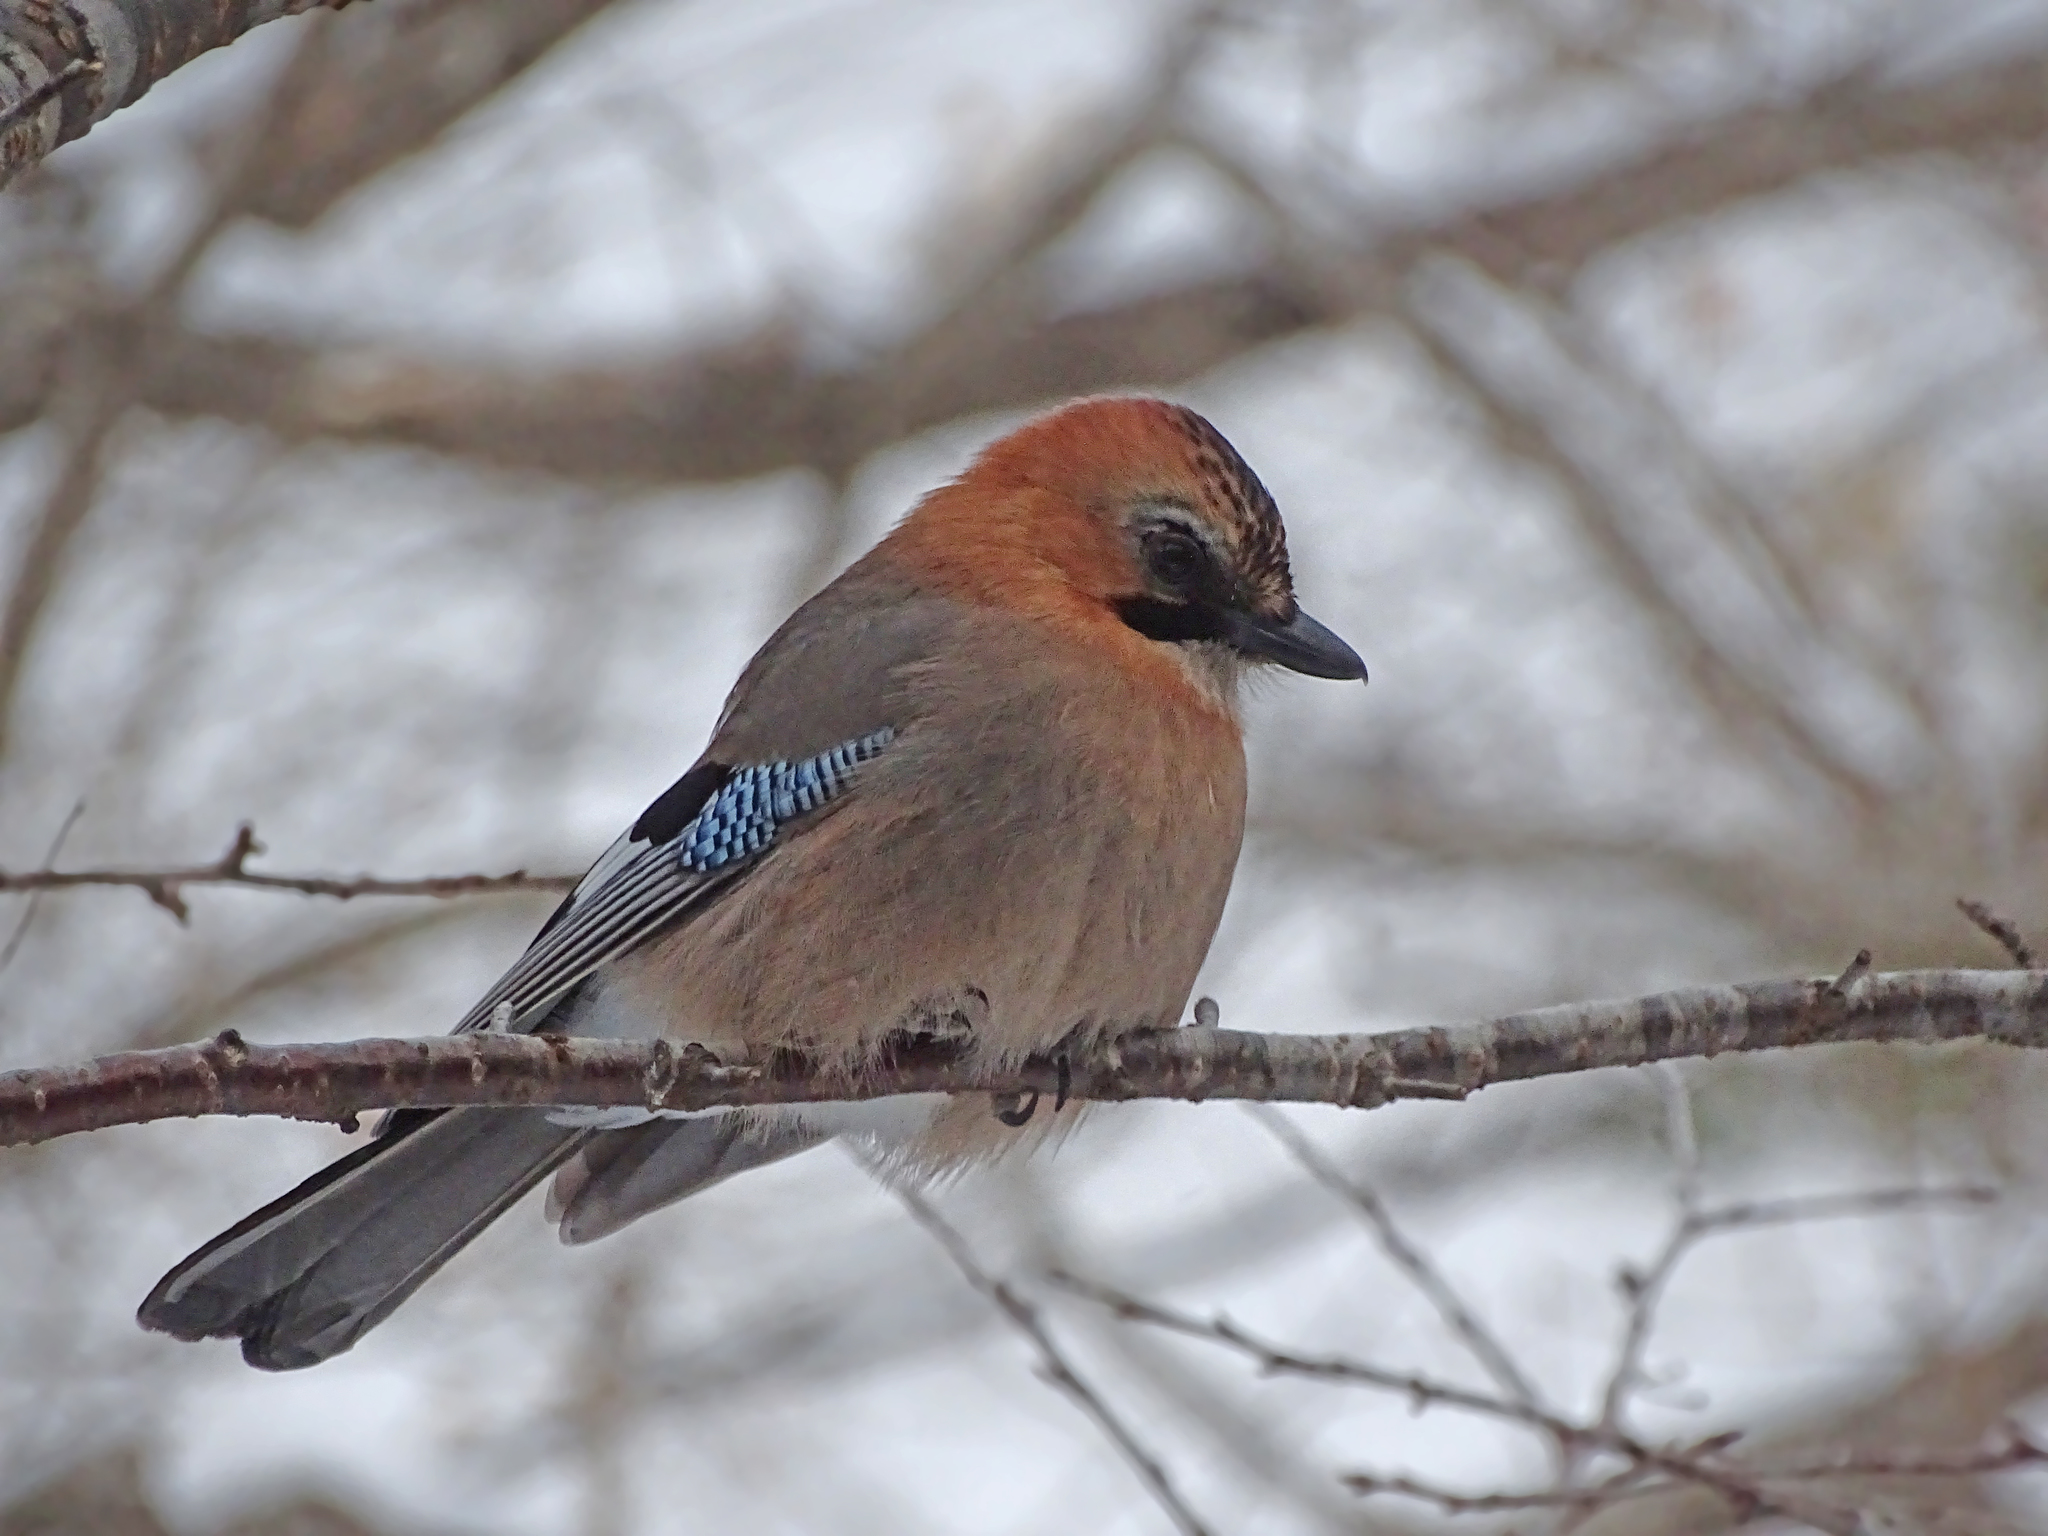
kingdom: Animalia
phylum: Chordata
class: Aves
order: Passeriformes
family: Corvidae
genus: Garrulus
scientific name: Garrulus glandarius
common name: Eurasian jay
